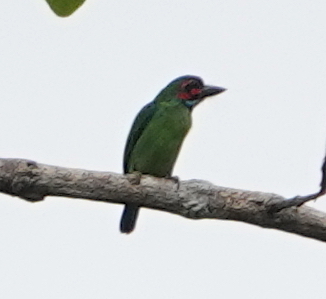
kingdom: Animalia
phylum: Chordata
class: Aves
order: Piciformes
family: Megalaimidae
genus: Psilopogon
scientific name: Psilopogon duvaucelii
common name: Blue-eared barbet
